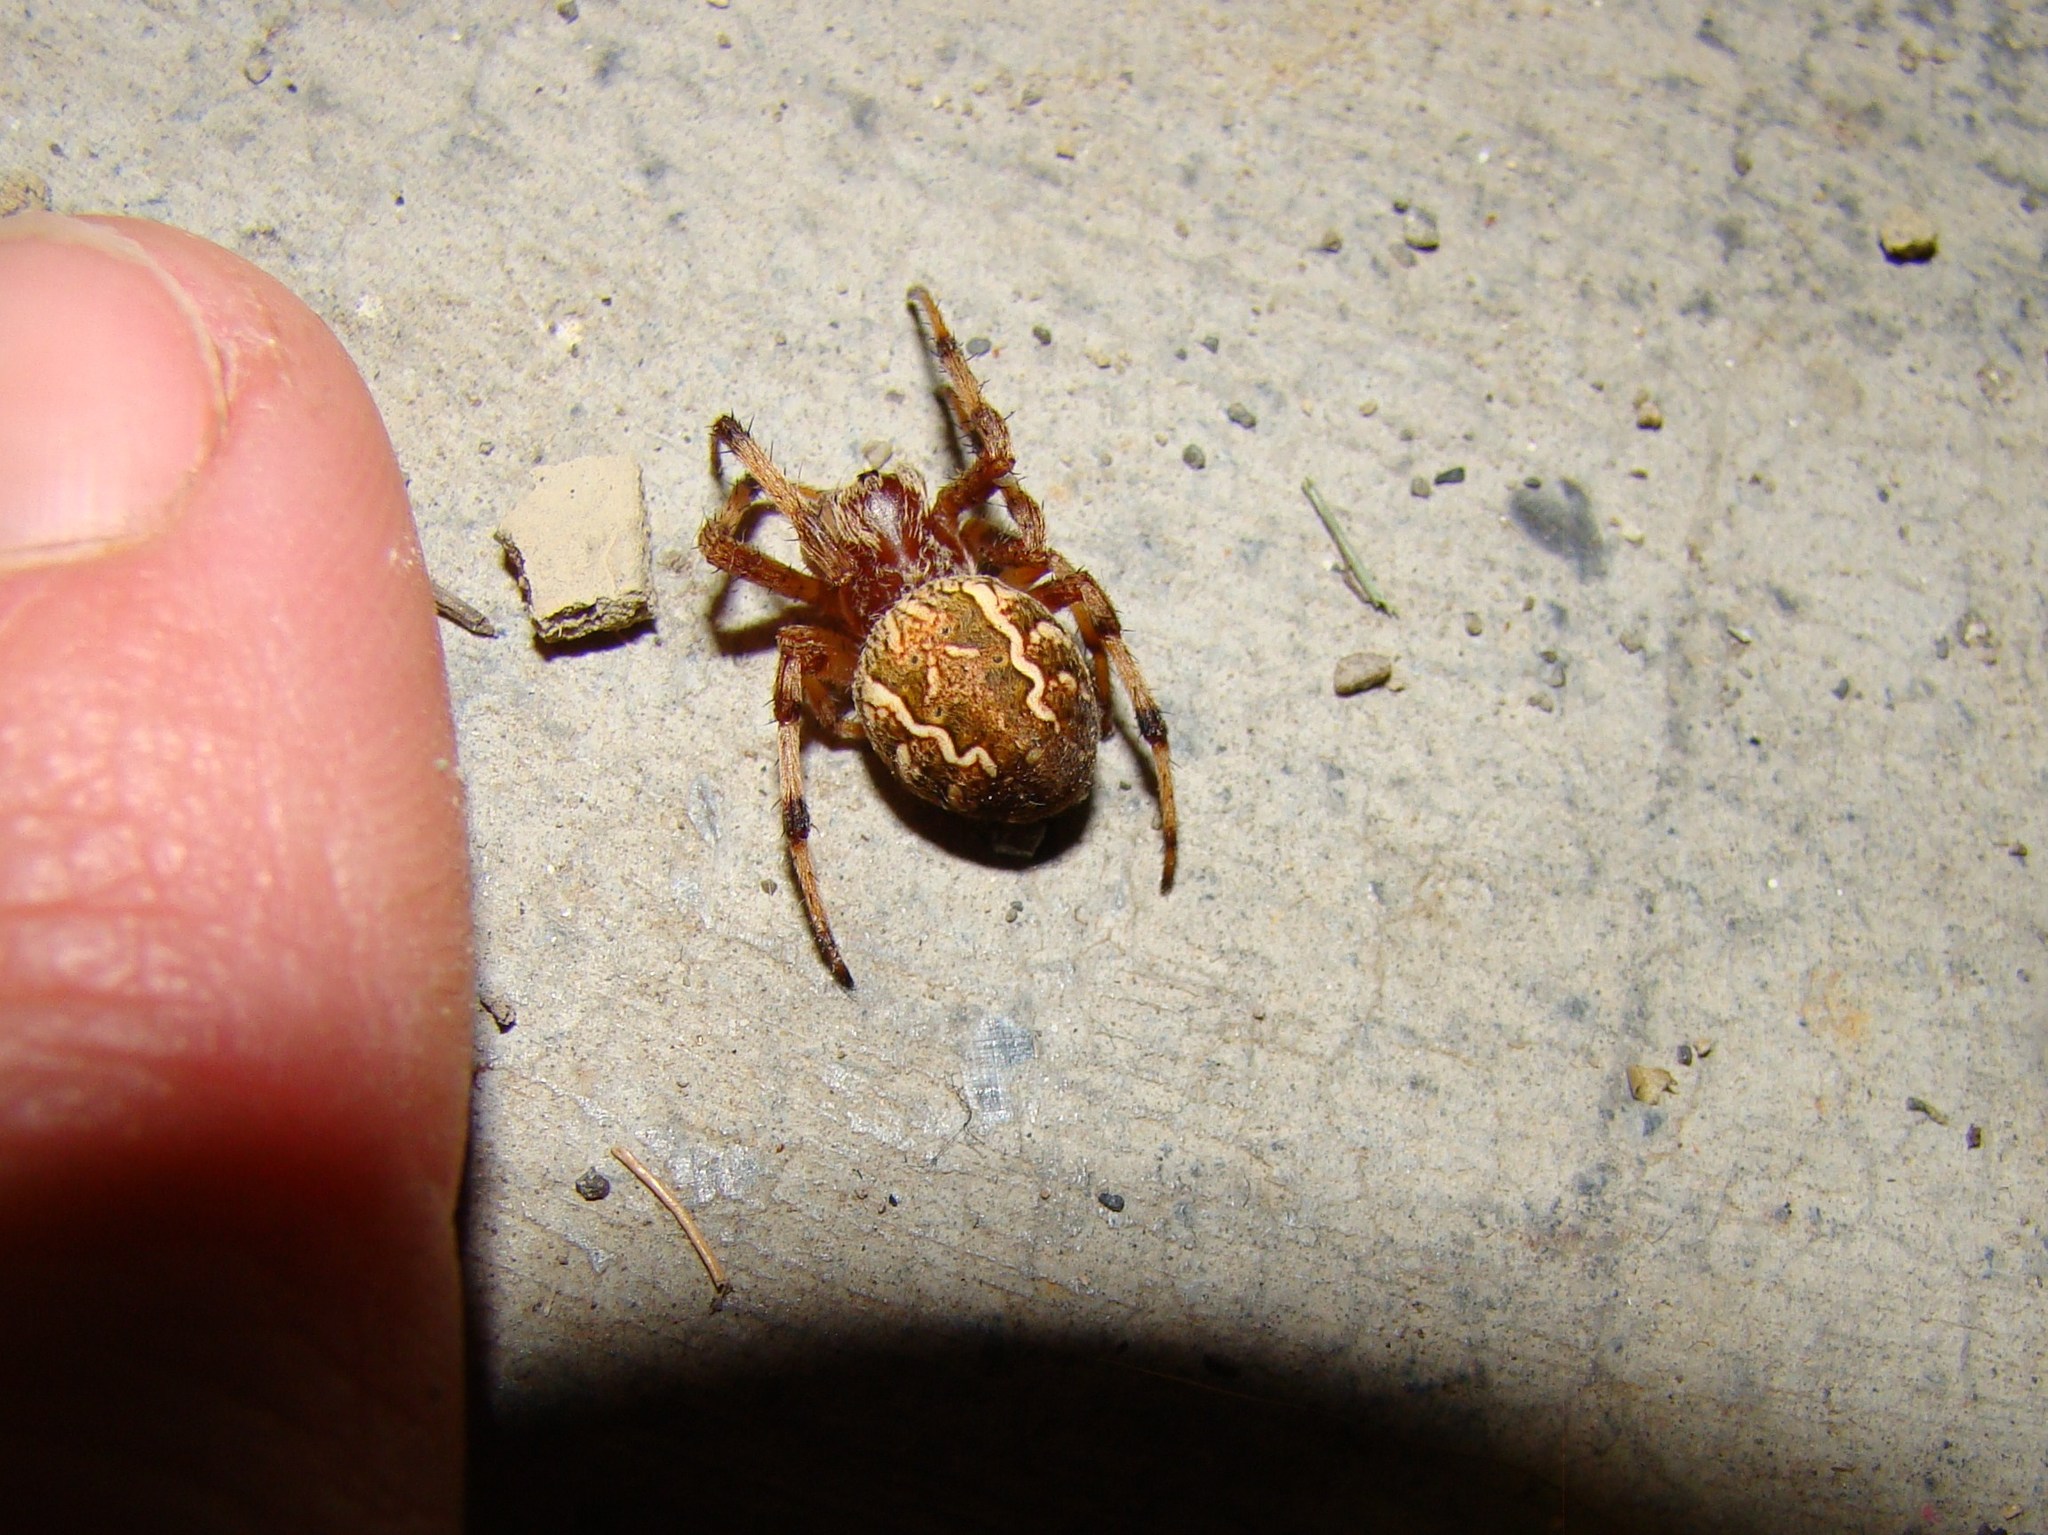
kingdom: Animalia
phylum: Arthropoda
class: Arachnida
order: Araneae
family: Araneidae
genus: Salsa
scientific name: Salsa fuliginata
